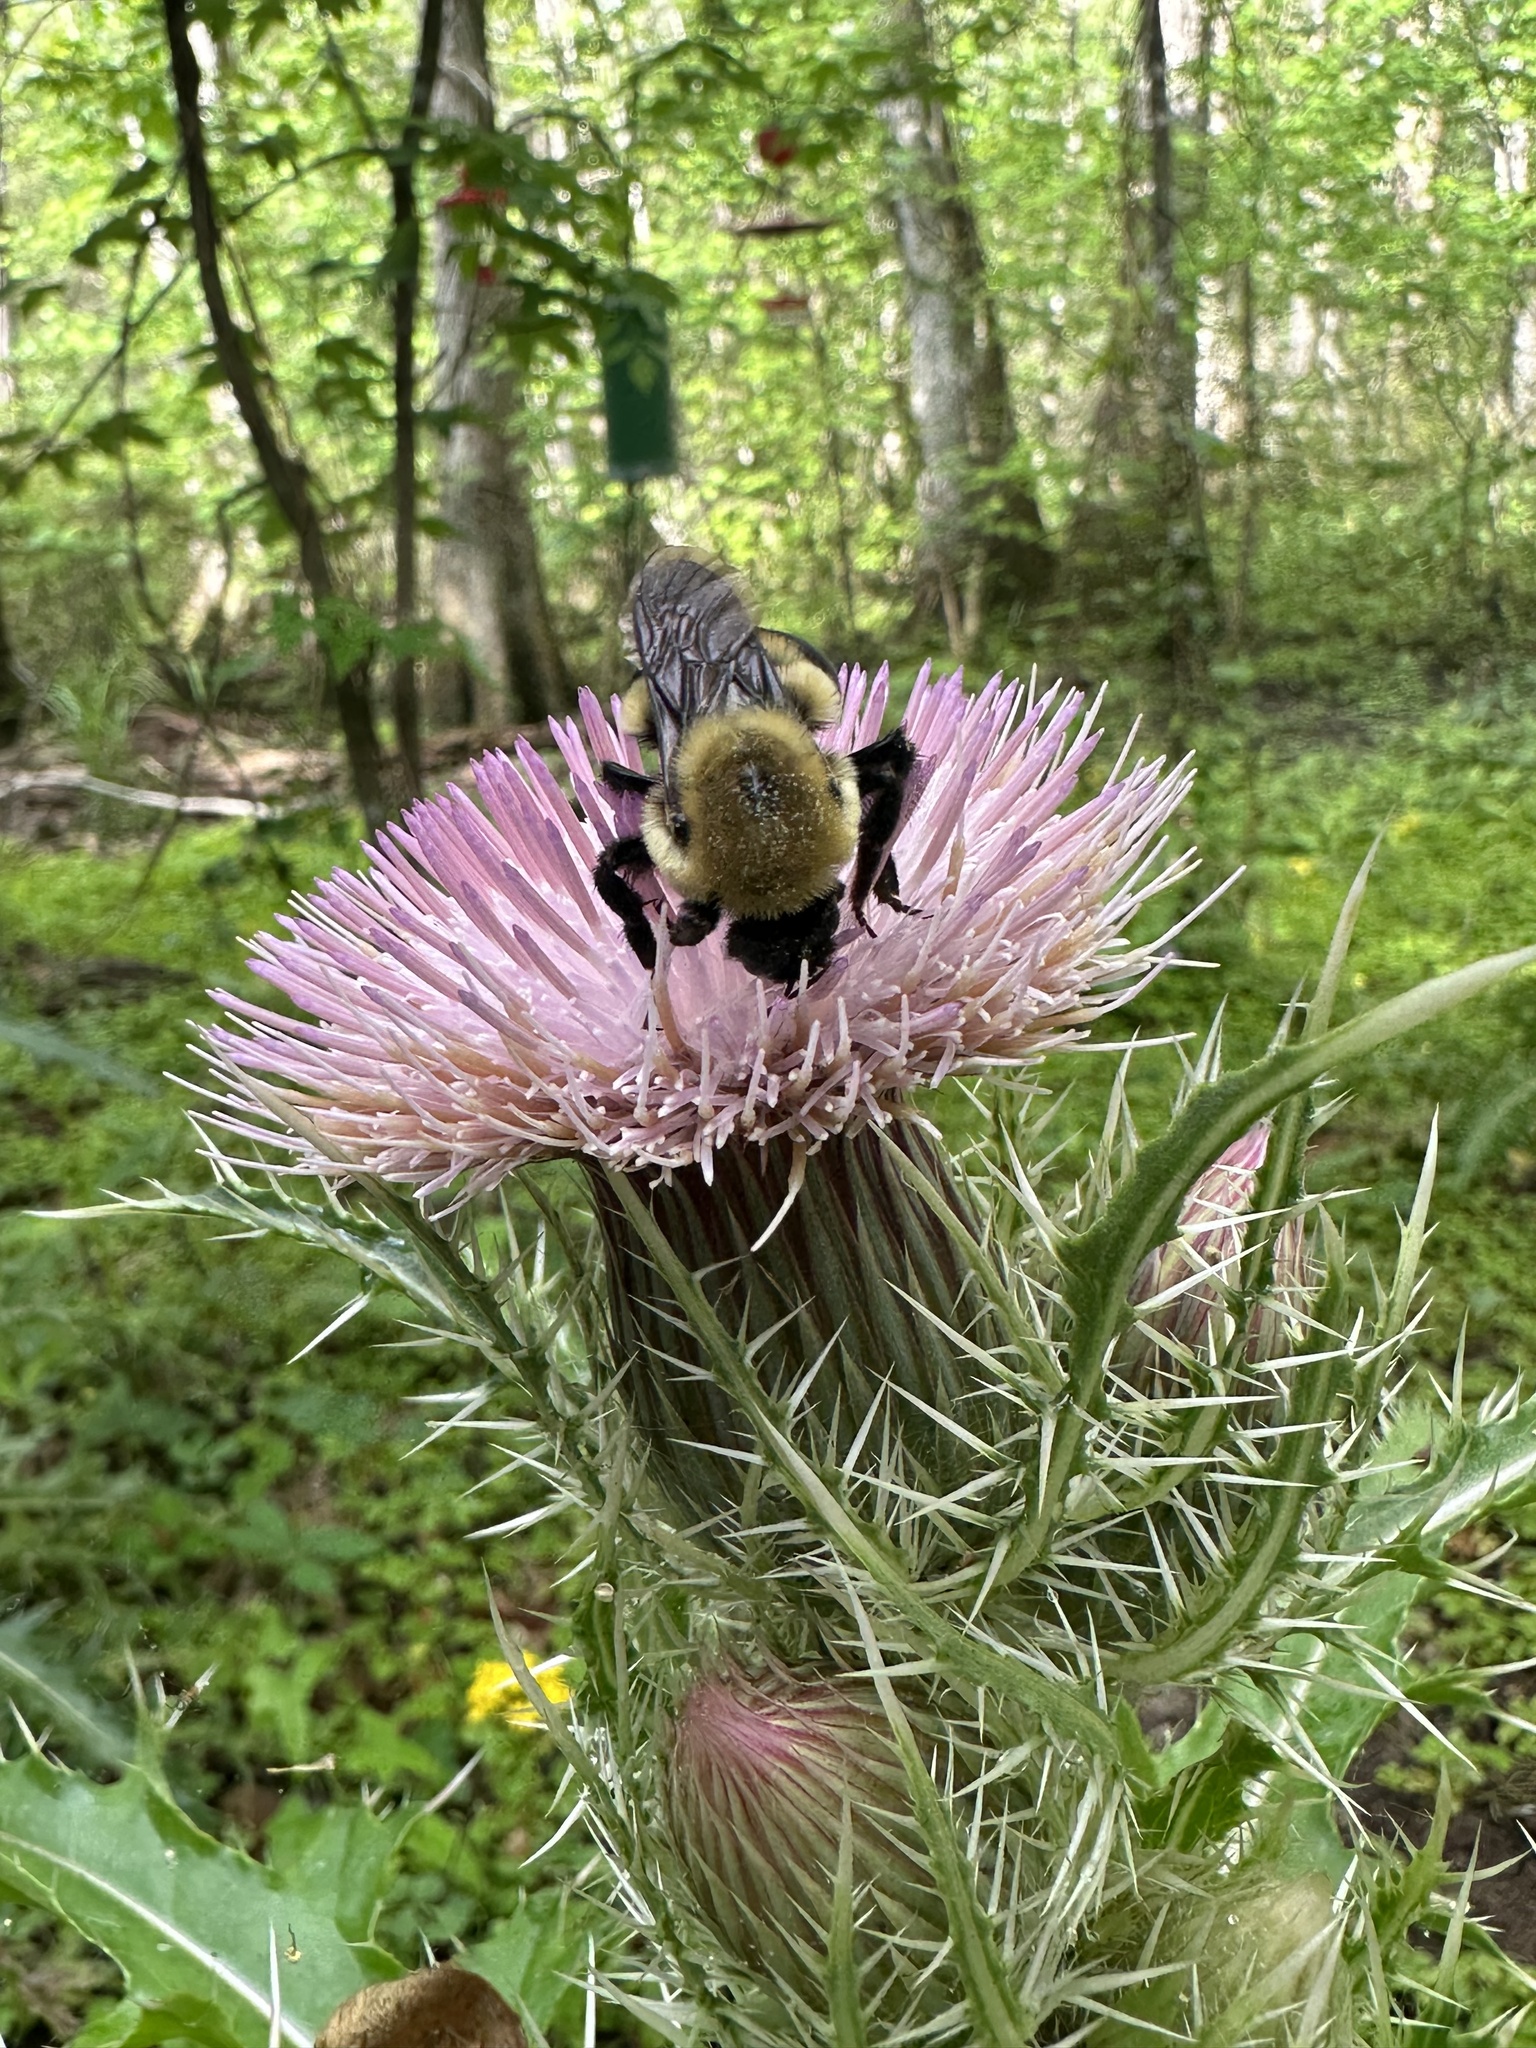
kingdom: Plantae
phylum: Tracheophyta
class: Magnoliopsida
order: Asterales
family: Asteraceae
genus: Cirsium
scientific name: Cirsium horridulum
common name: Bristly thistle
